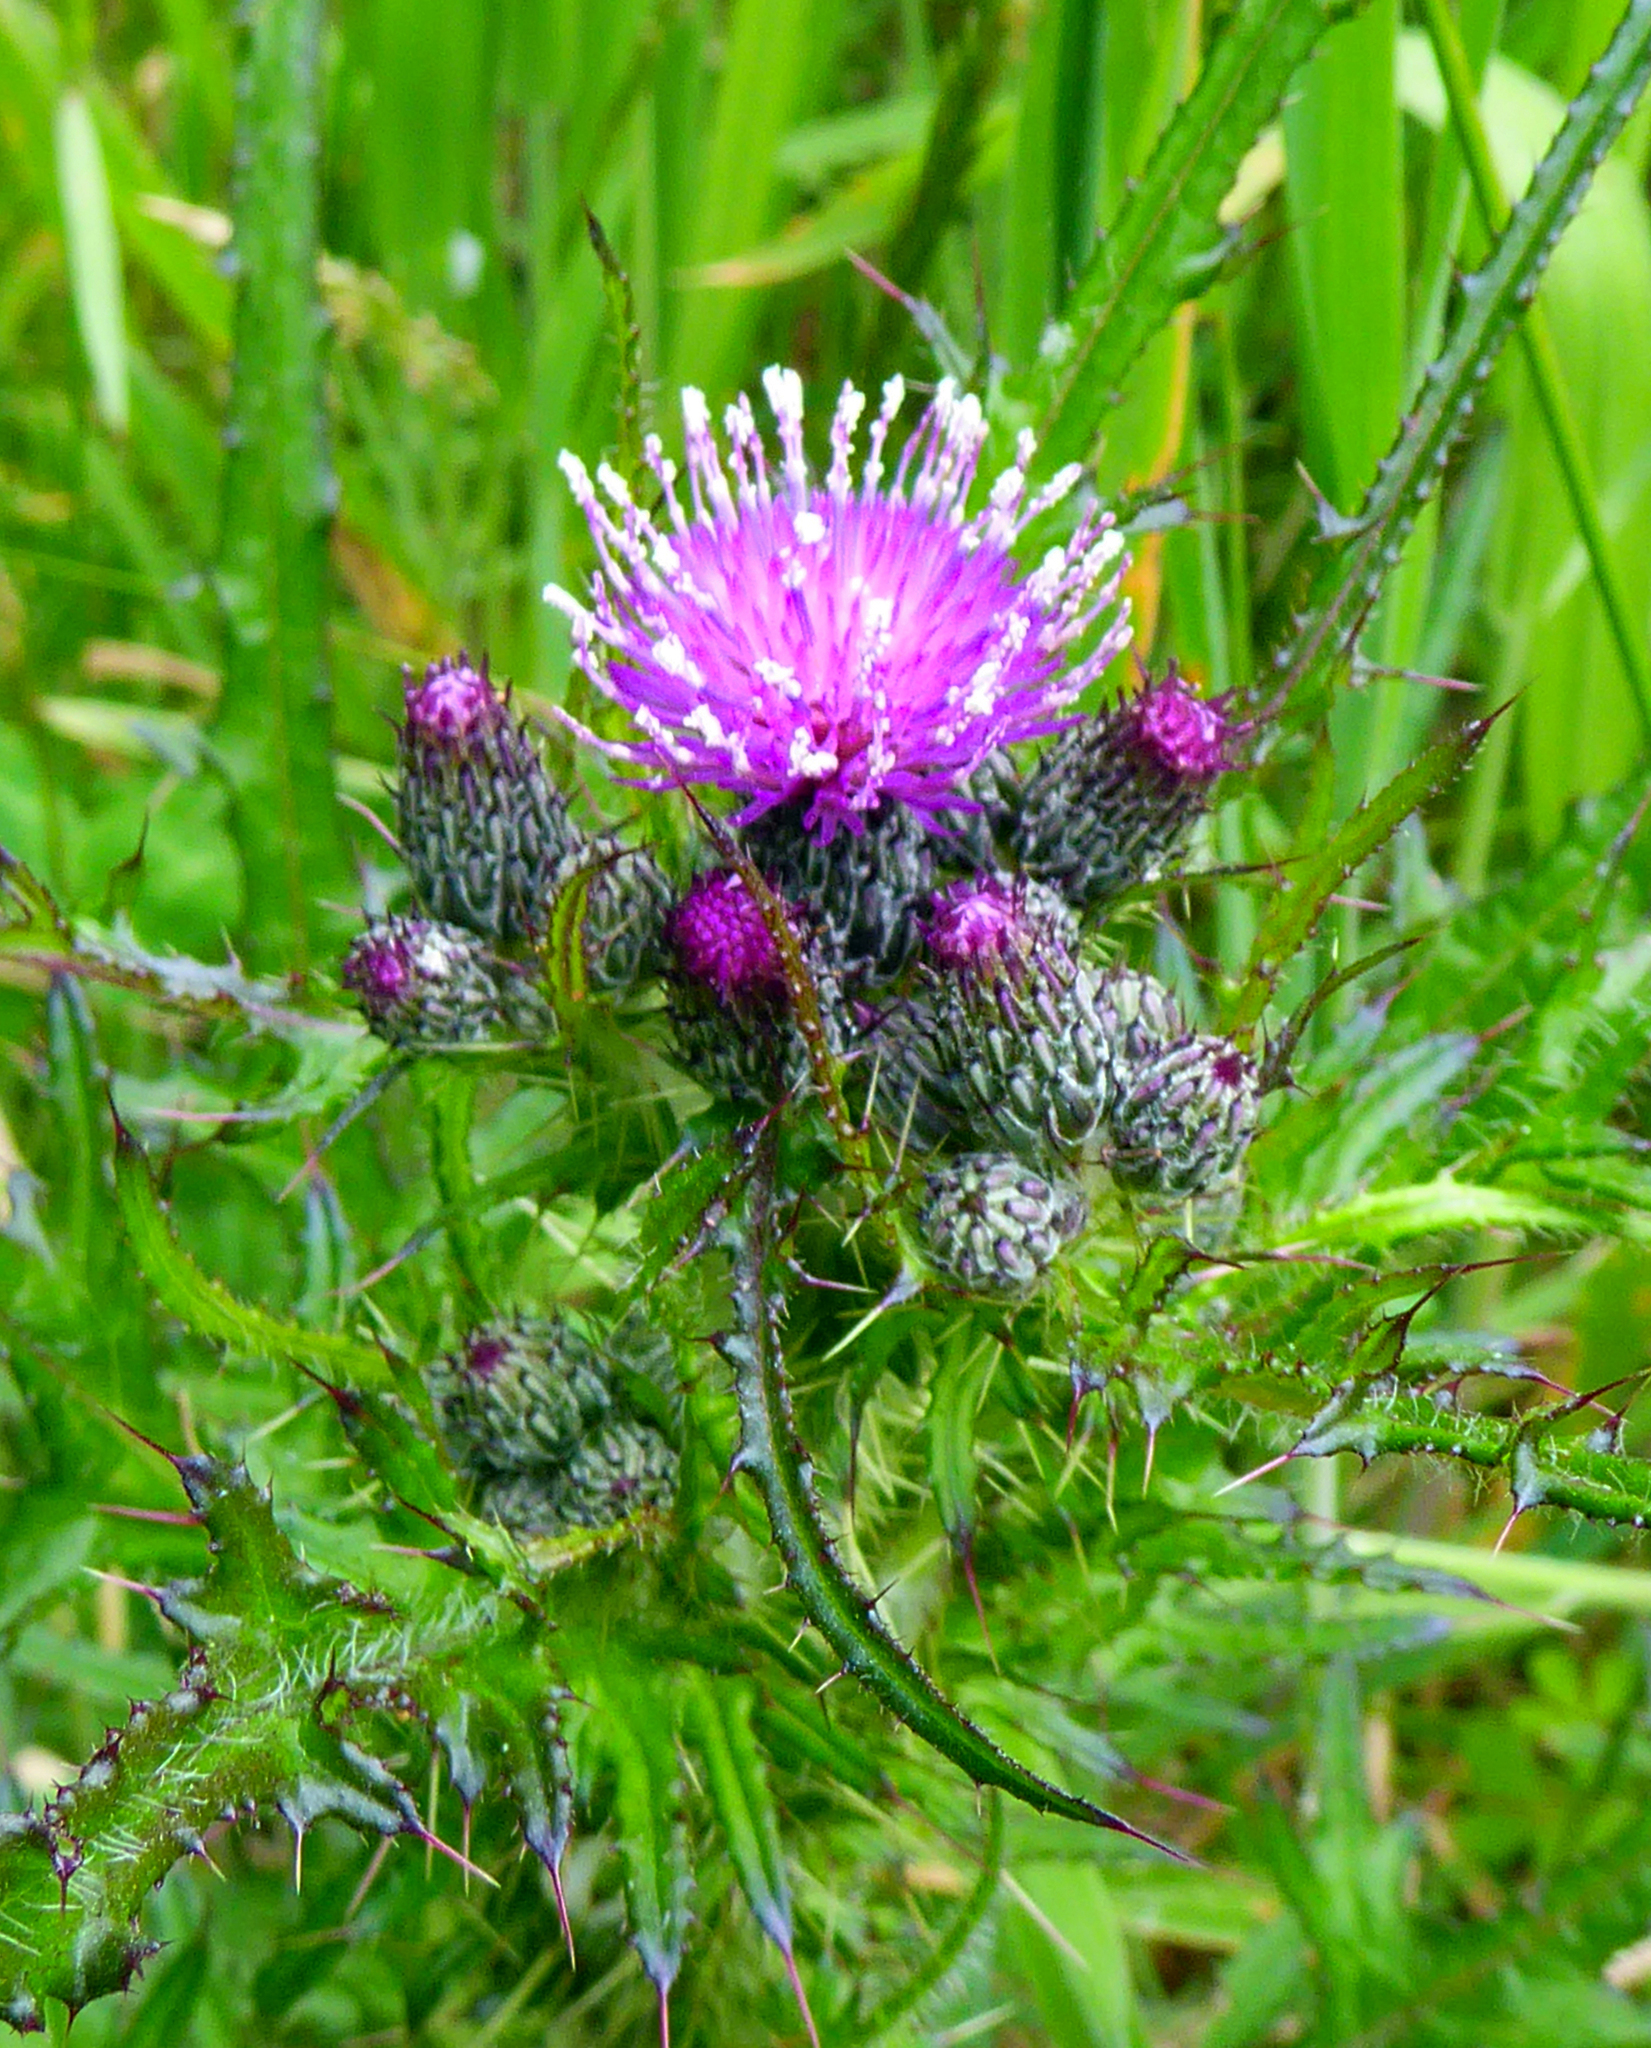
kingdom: Plantae
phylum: Tracheophyta
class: Magnoliopsida
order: Asterales
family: Asteraceae
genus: Cirsium
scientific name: Cirsium palustre
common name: Marsh thistle
